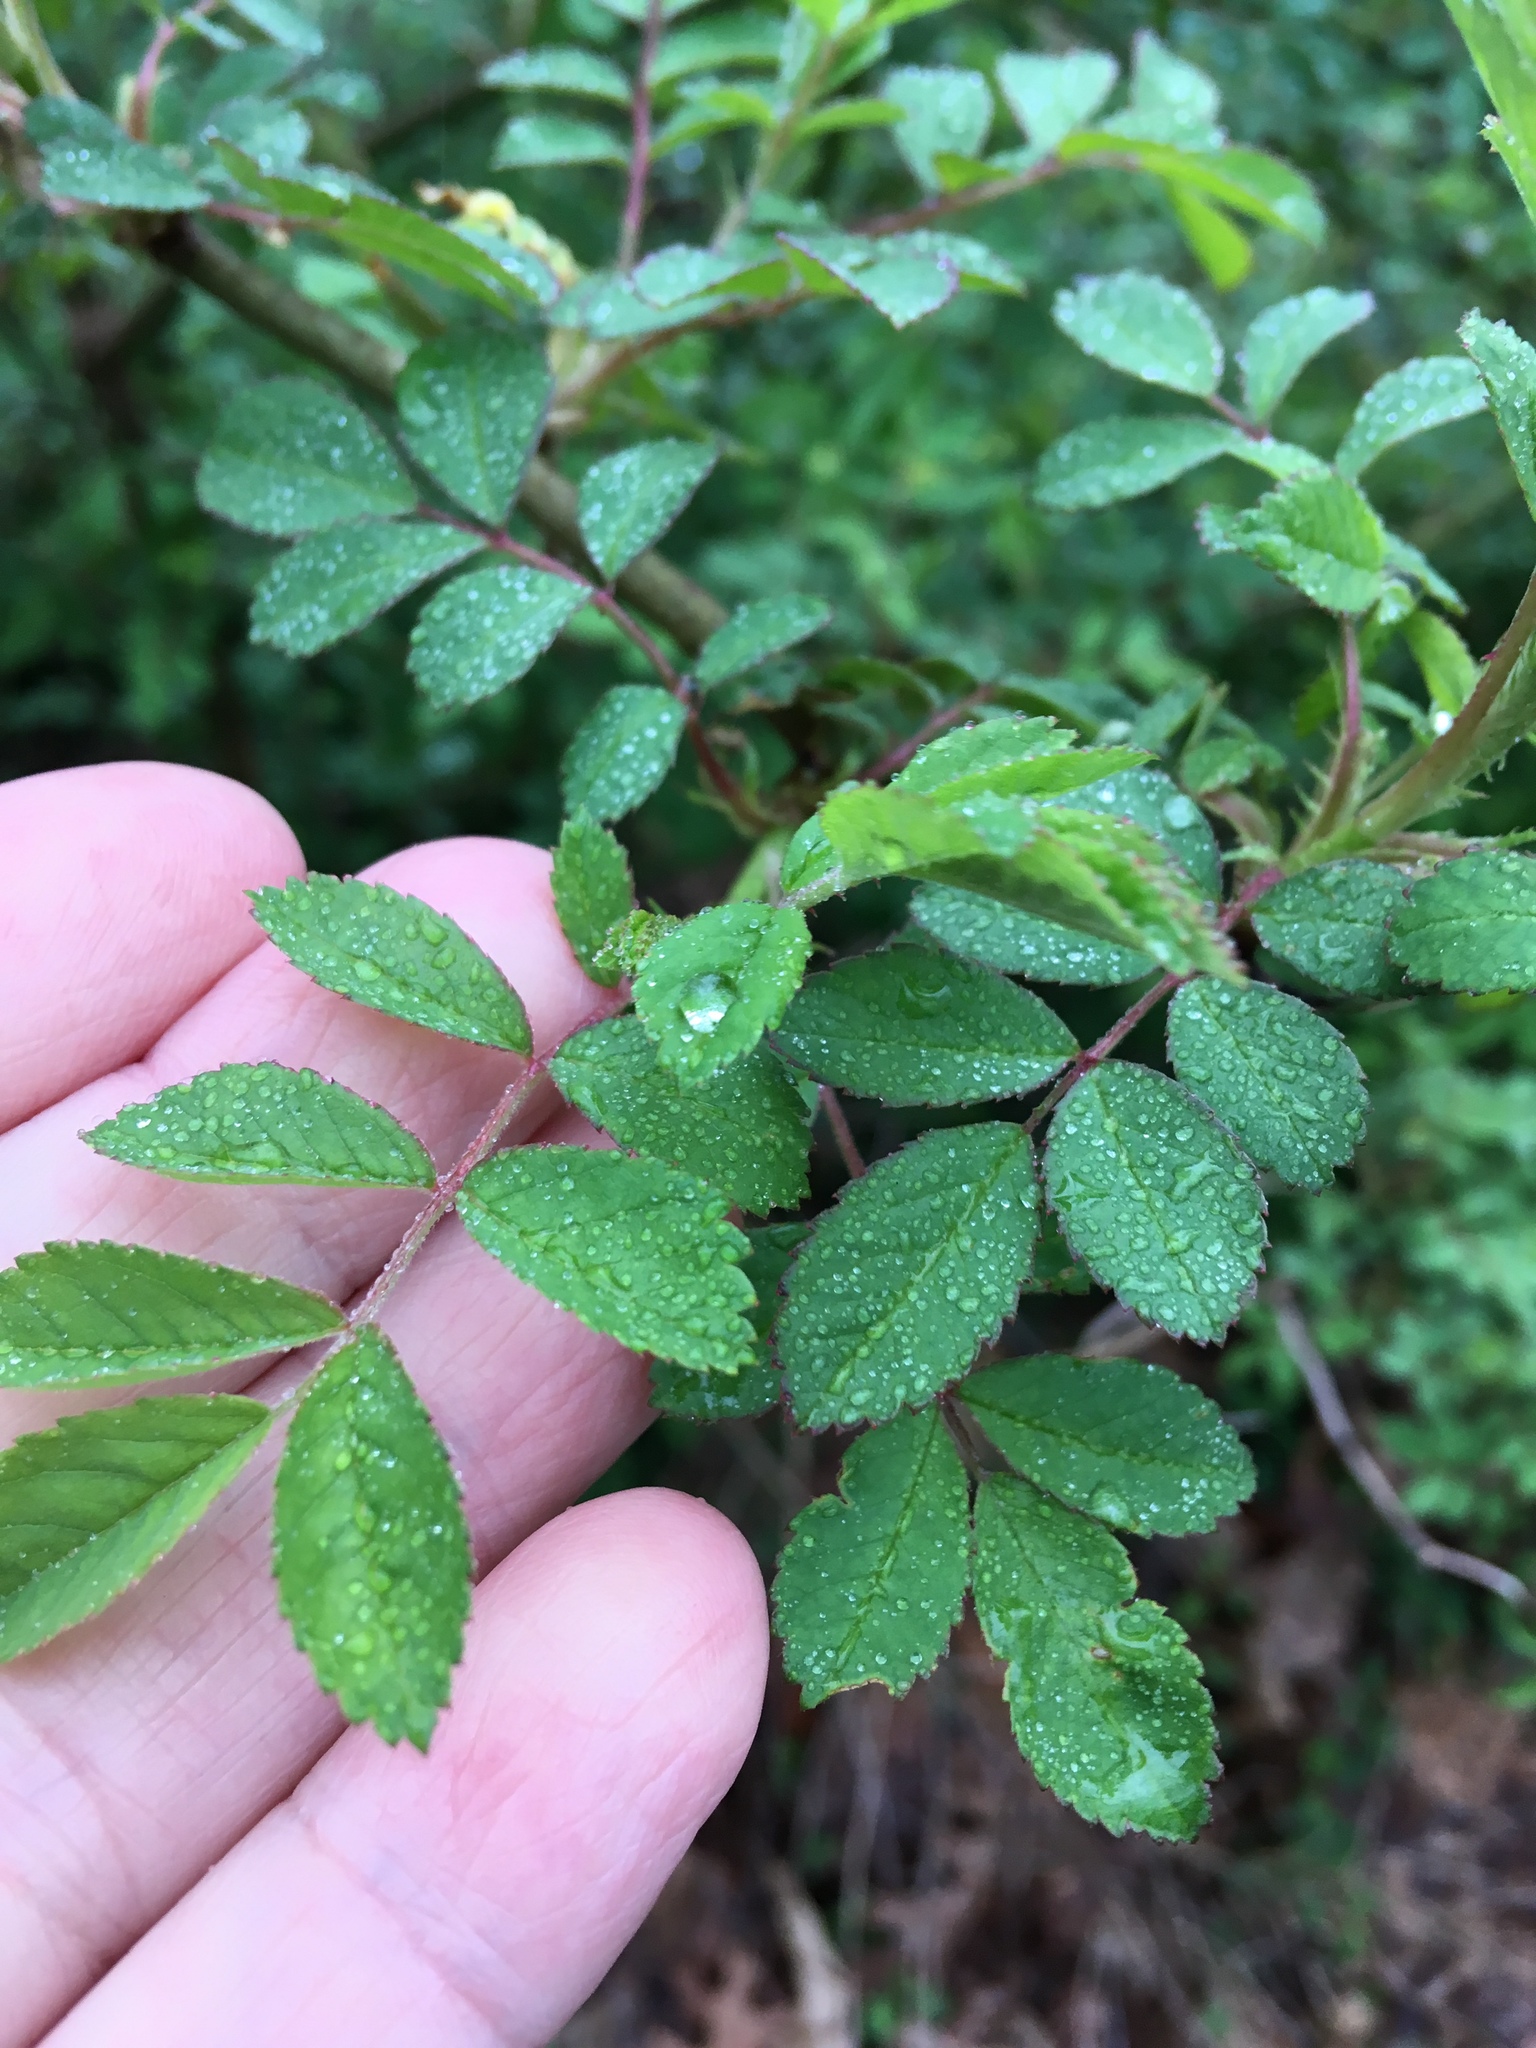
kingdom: Plantae
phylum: Tracheophyta
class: Magnoliopsida
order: Rosales
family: Rosaceae
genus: Rosa
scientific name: Rosa multiflora
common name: Multiflora rose
